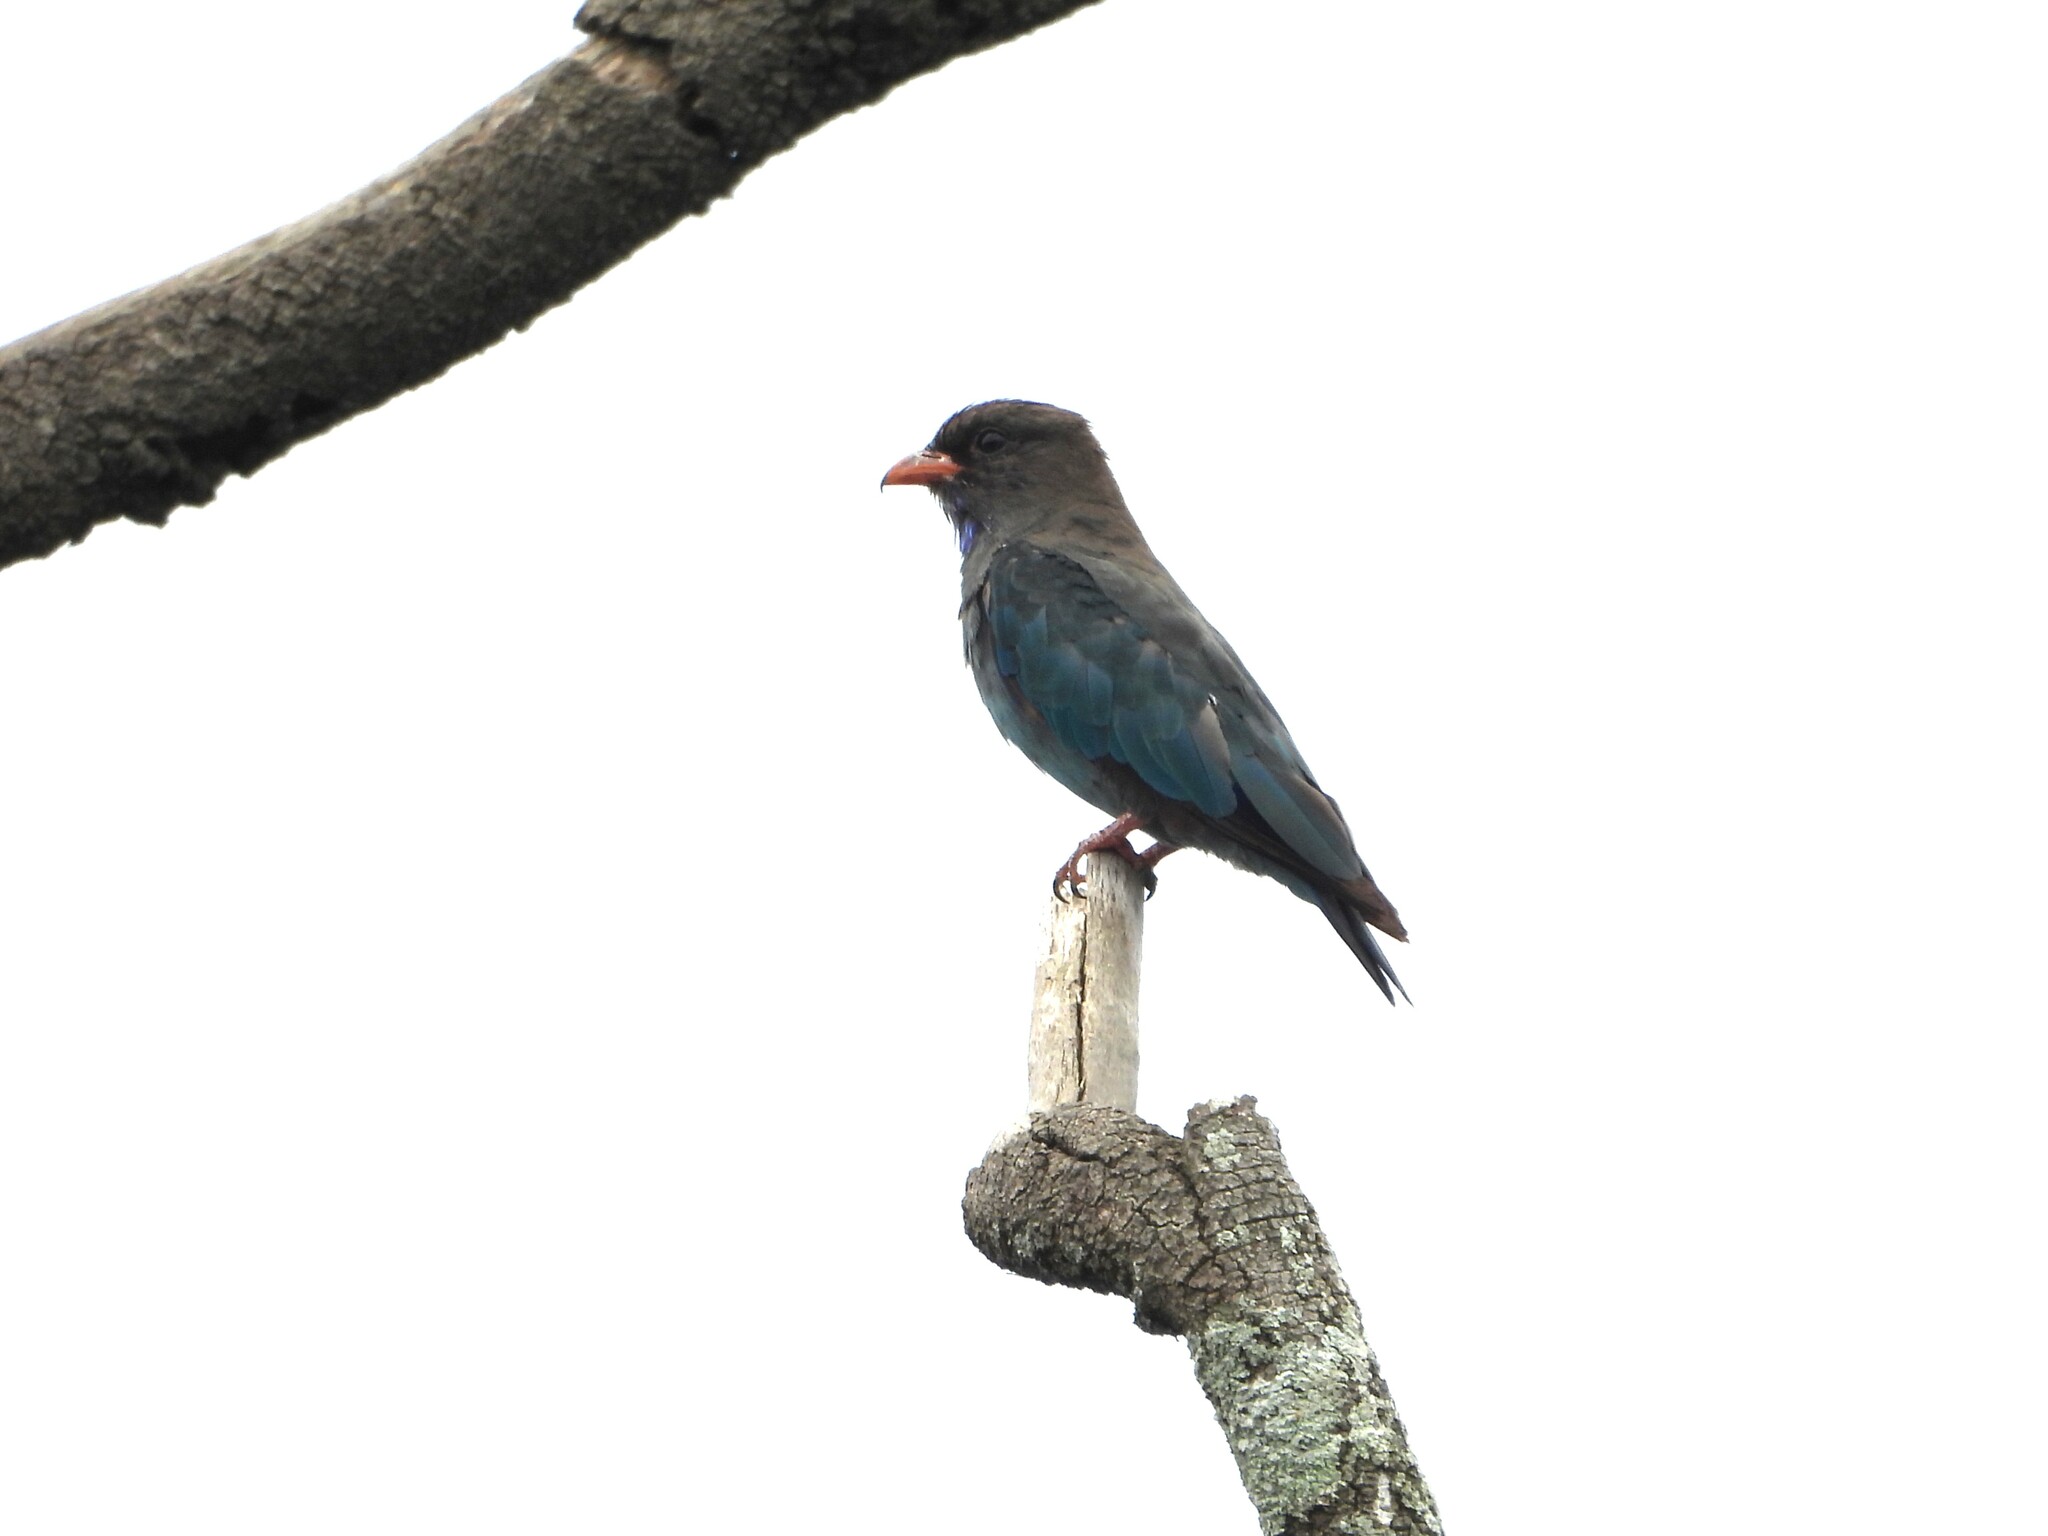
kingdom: Animalia
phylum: Chordata
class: Aves
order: Coraciiformes
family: Coraciidae
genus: Eurystomus
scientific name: Eurystomus orientalis
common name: Oriental dollarbird
